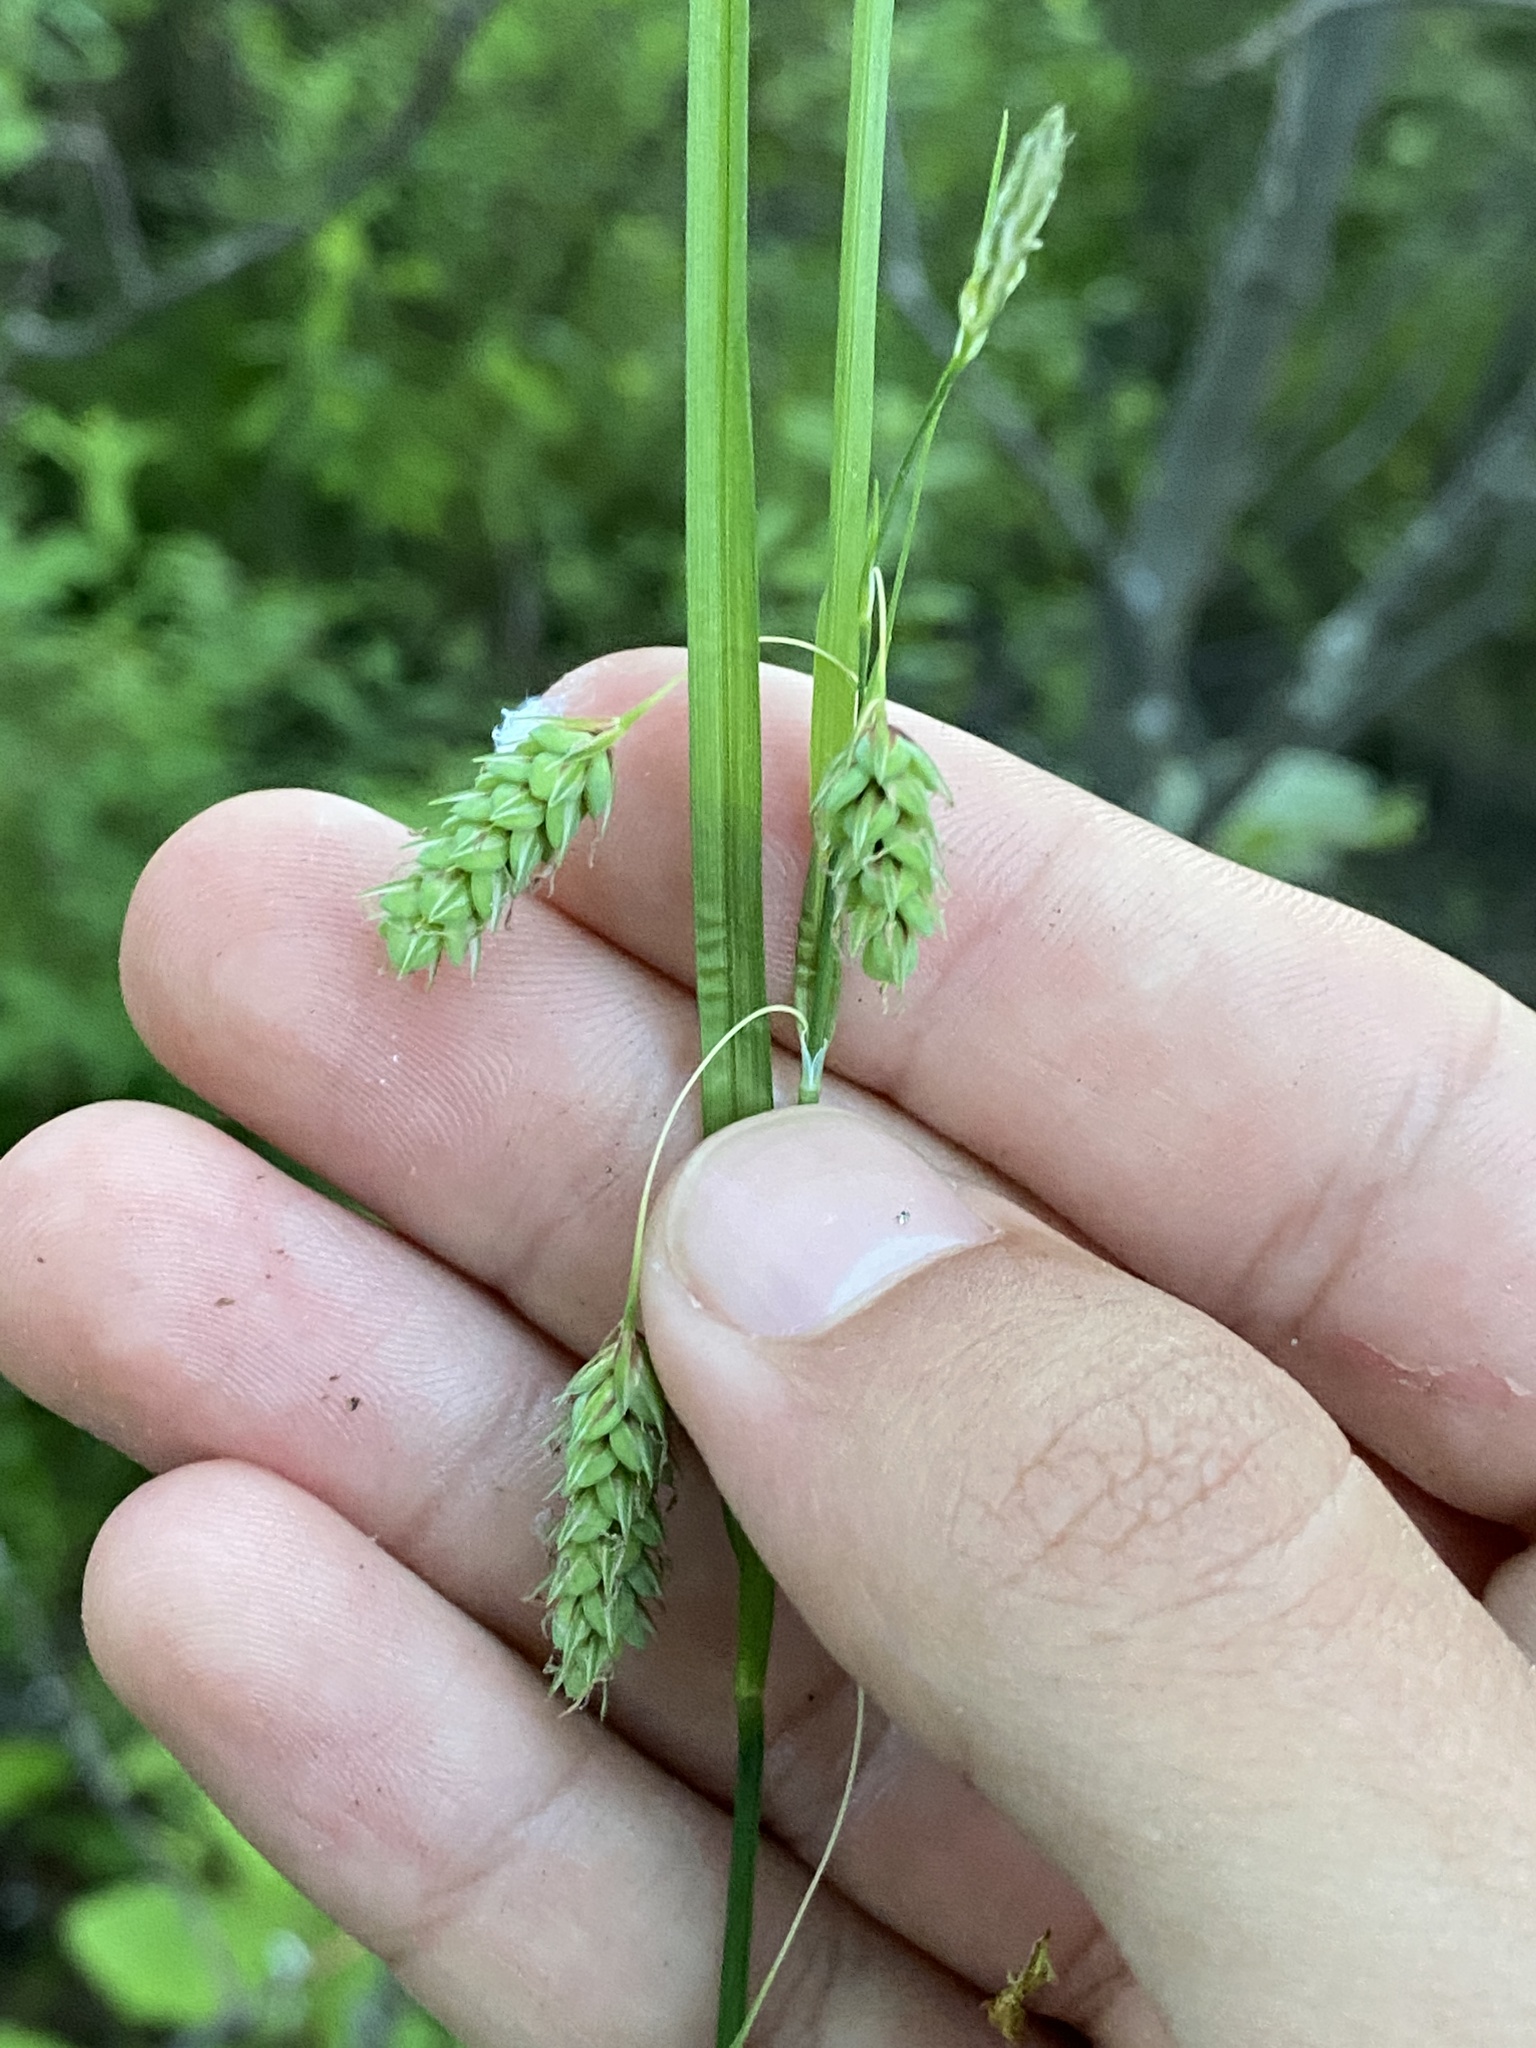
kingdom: Plantae
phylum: Tracheophyta
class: Liliopsida
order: Poales
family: Cyperaceae
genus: Carex
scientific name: Carex magellanica
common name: Bog sedge
